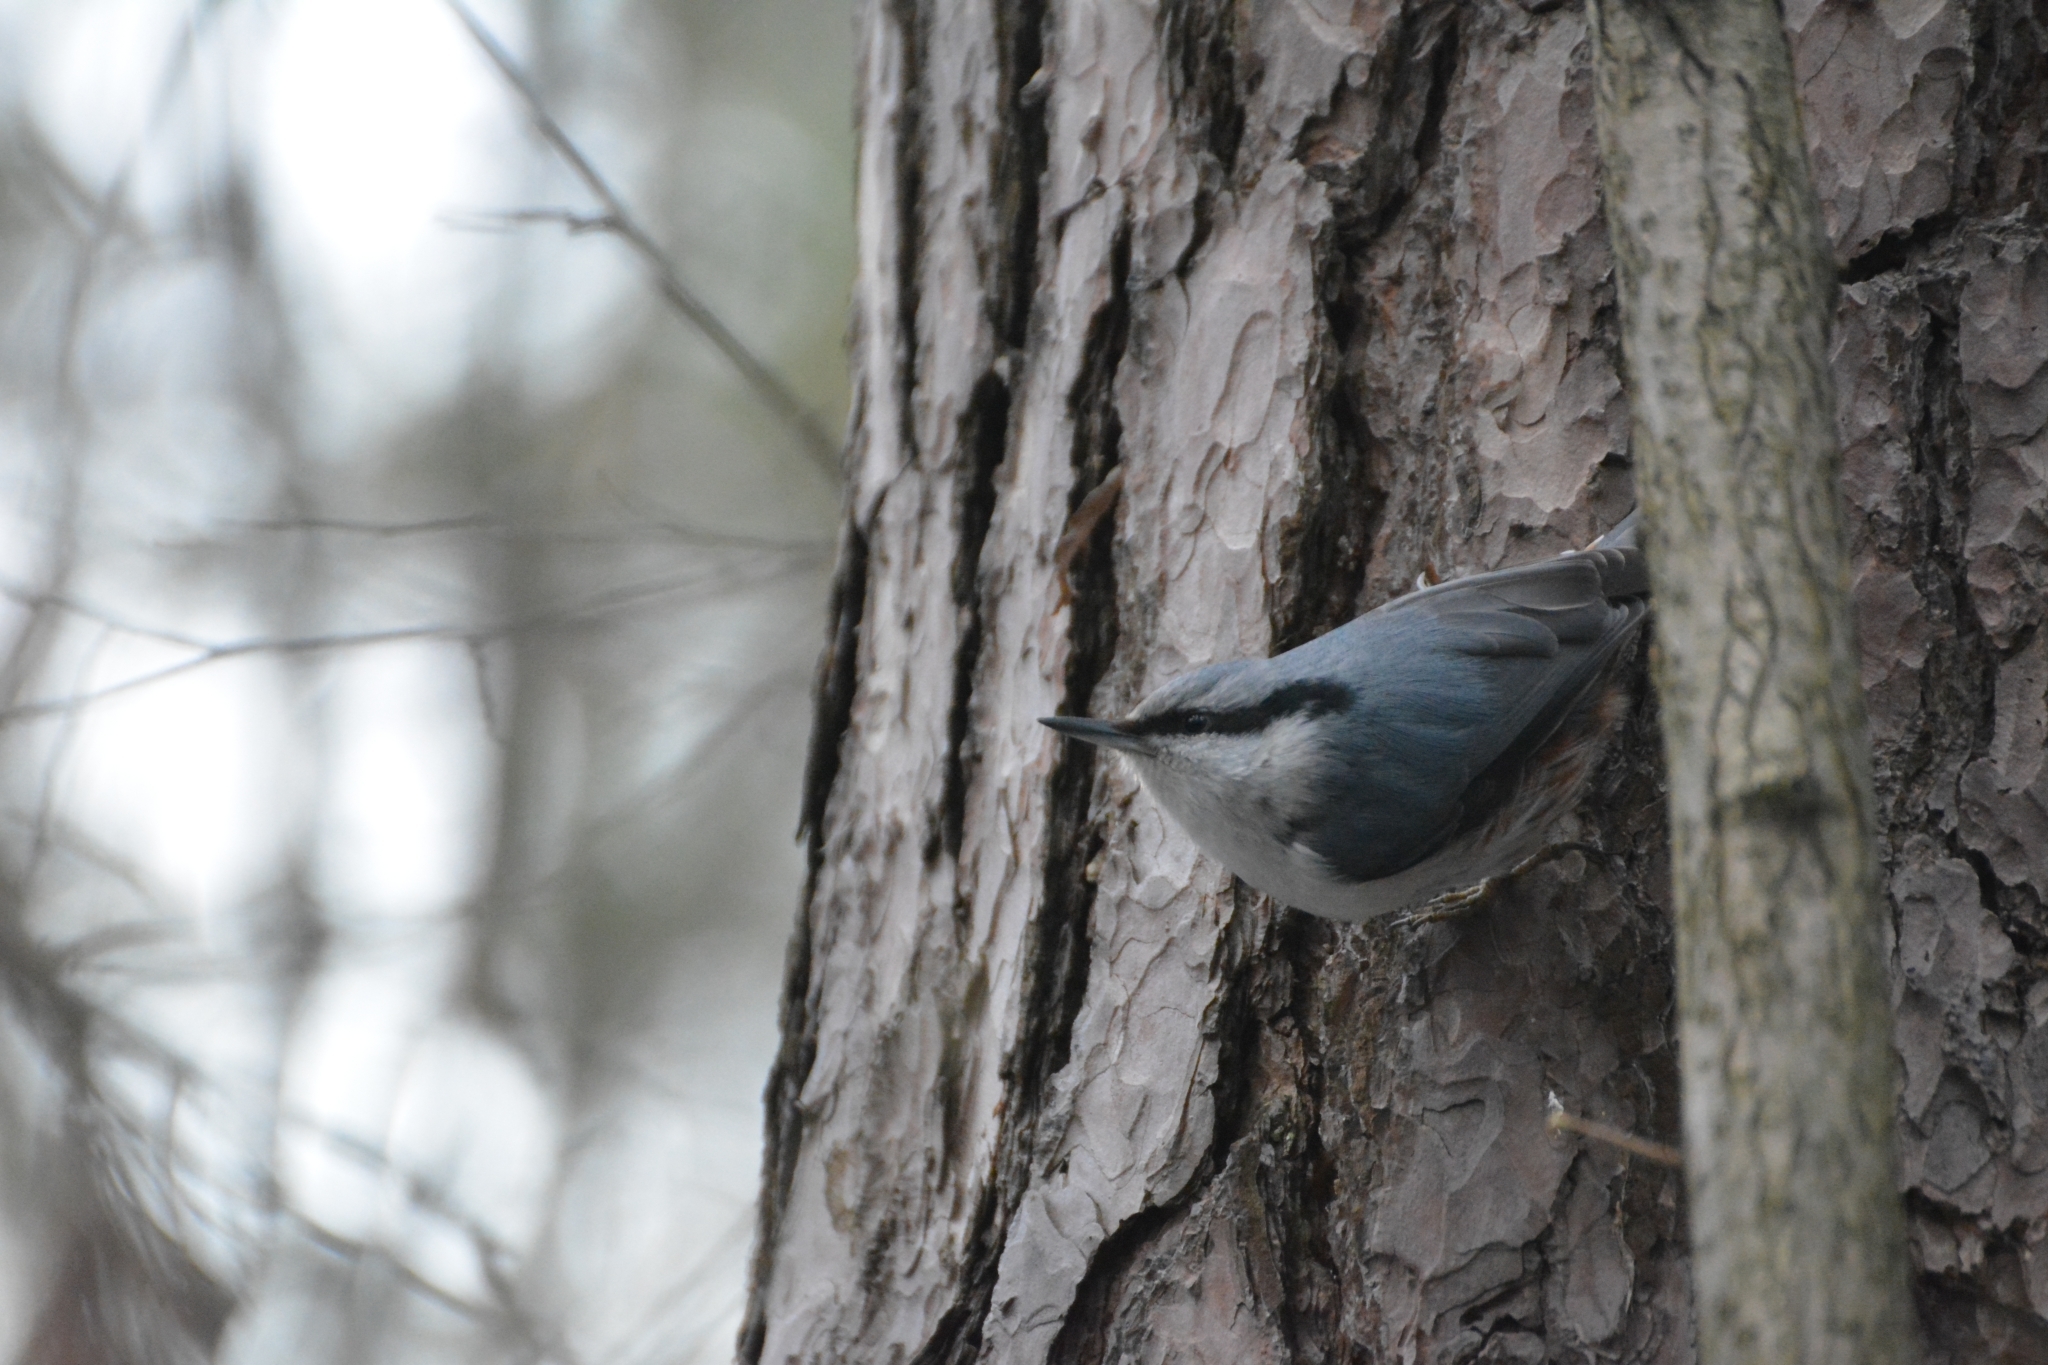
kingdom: Animalia
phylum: Chordata
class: Aves
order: Passeriformes
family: Sittidae
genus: Sitta
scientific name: Sitta europaea
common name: Eurasian nuthatch
